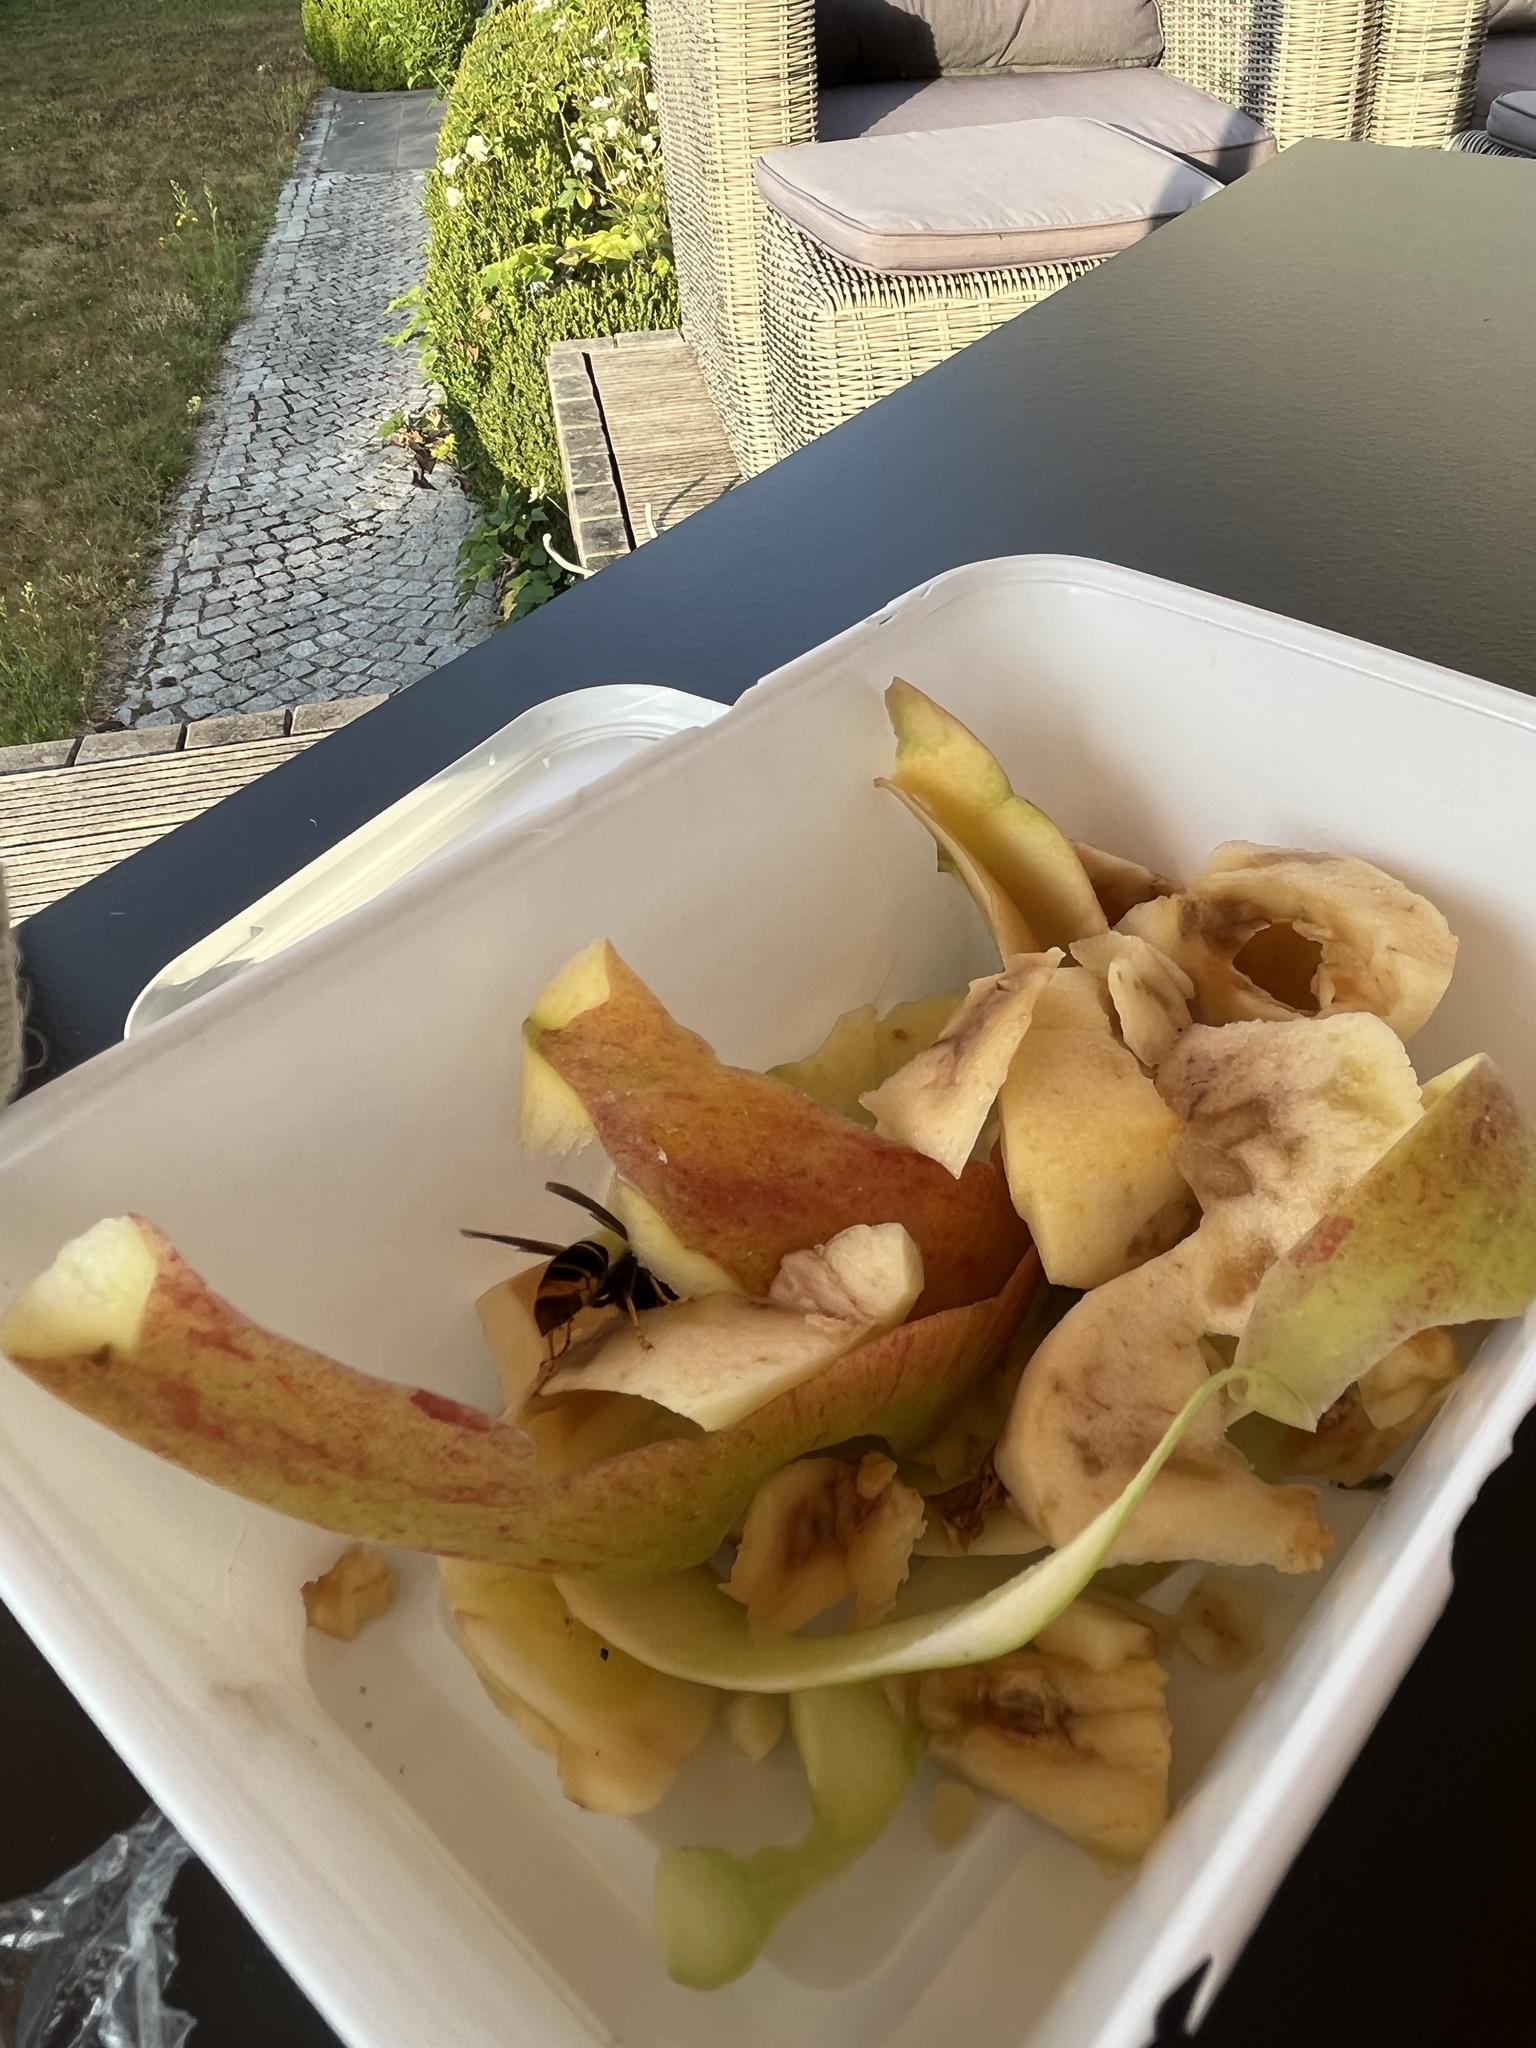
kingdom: Animalia
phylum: Arthropoda
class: Insecta
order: Hymenoptera
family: Vespidae
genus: Vespa
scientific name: Vespa velutina
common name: Asian hornet
